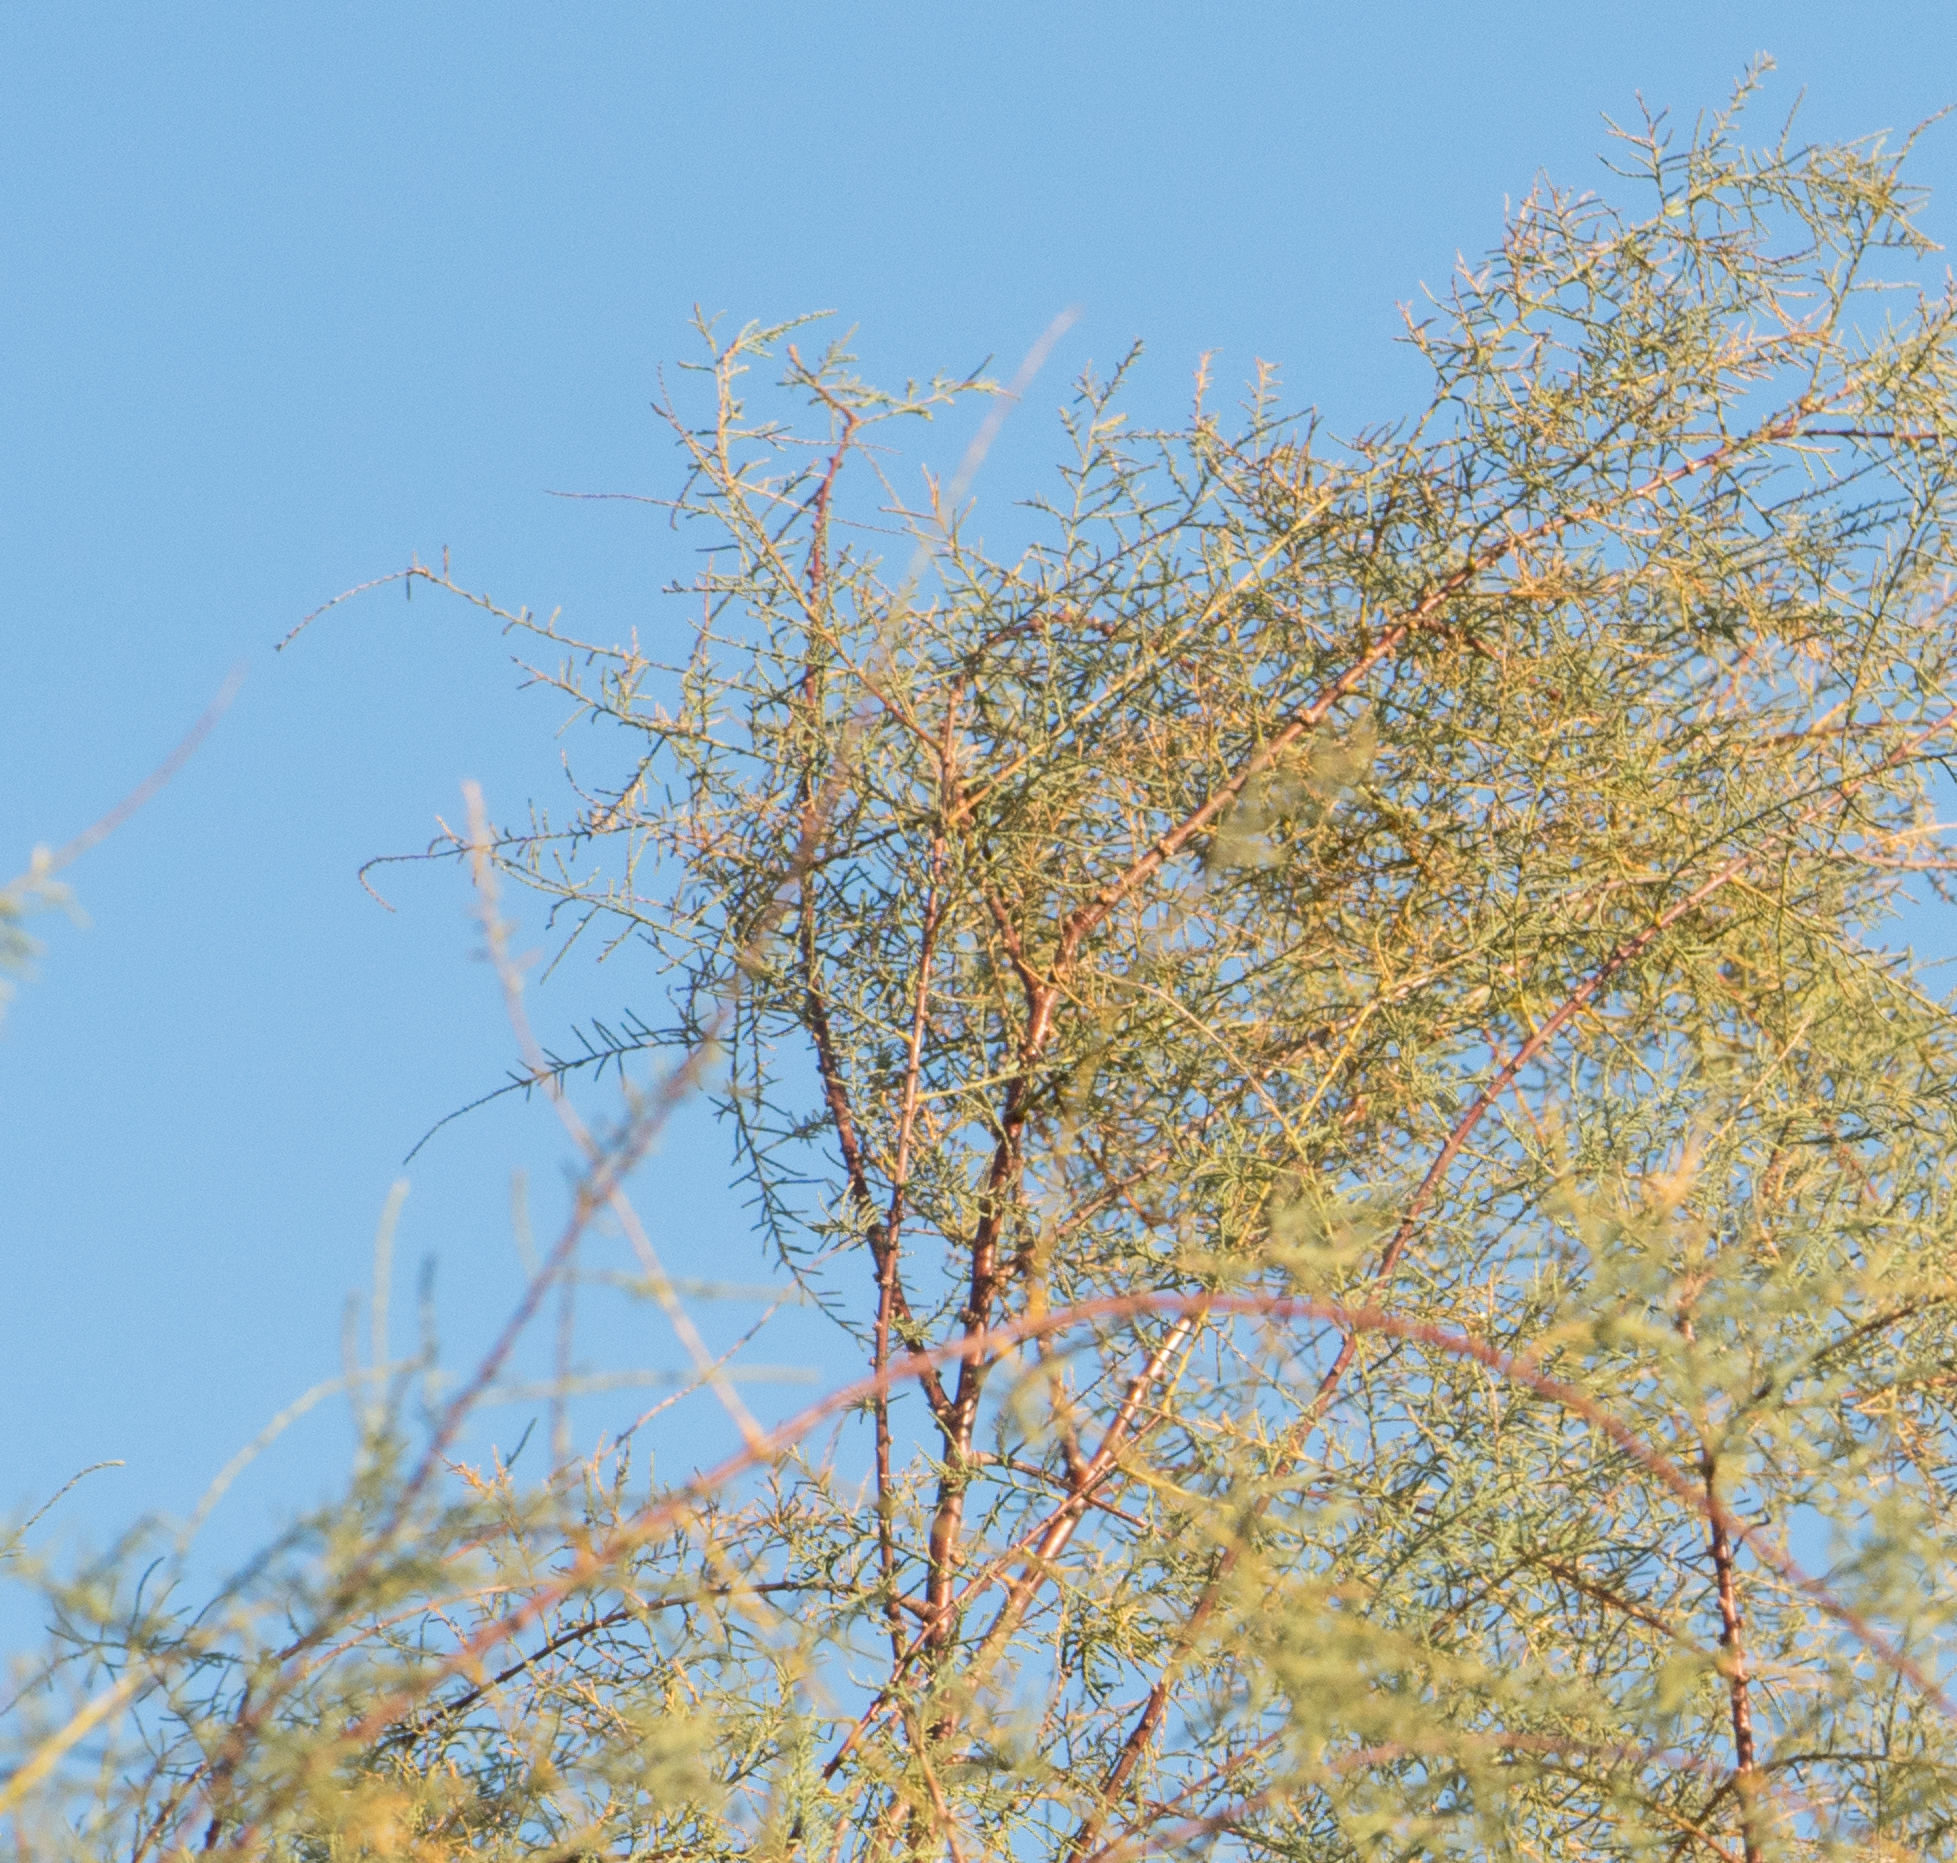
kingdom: Plantae
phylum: Tracheophyta
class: Magnoliopsida
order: Caryophyllales
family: Tamaricaceae
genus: Tamarix
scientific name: Tamarix
